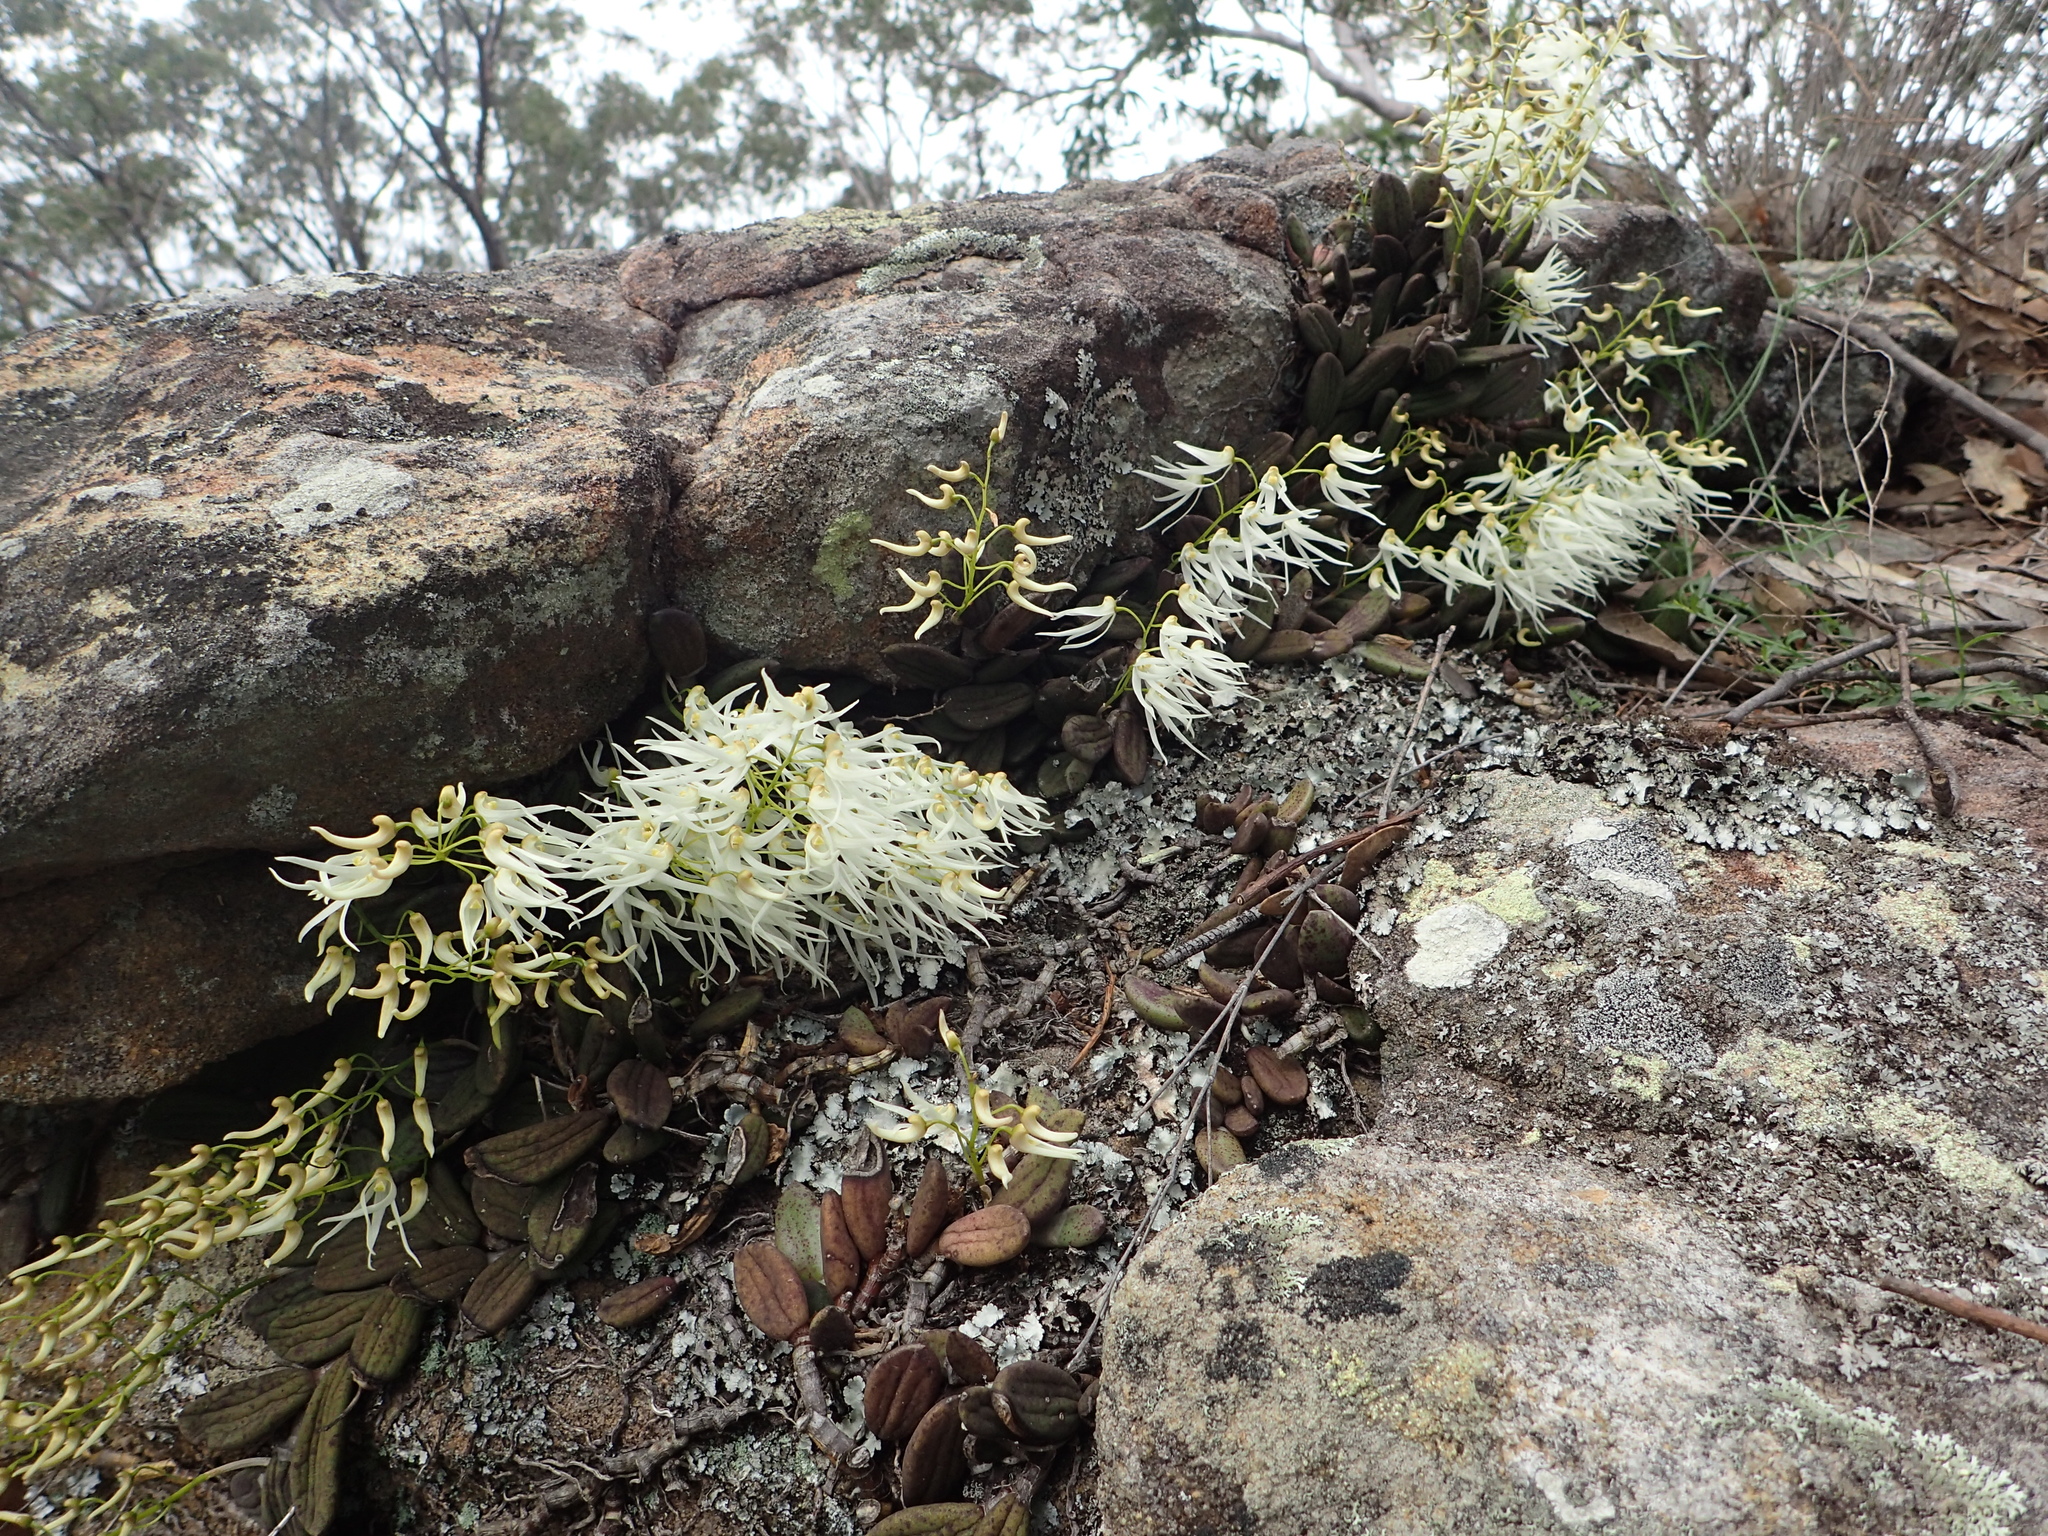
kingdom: Plantae
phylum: Tracheophyta
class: Liliopsida
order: Asparagales
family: Orchidaceae
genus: Dendrobium
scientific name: Dendrobium linguiforme
